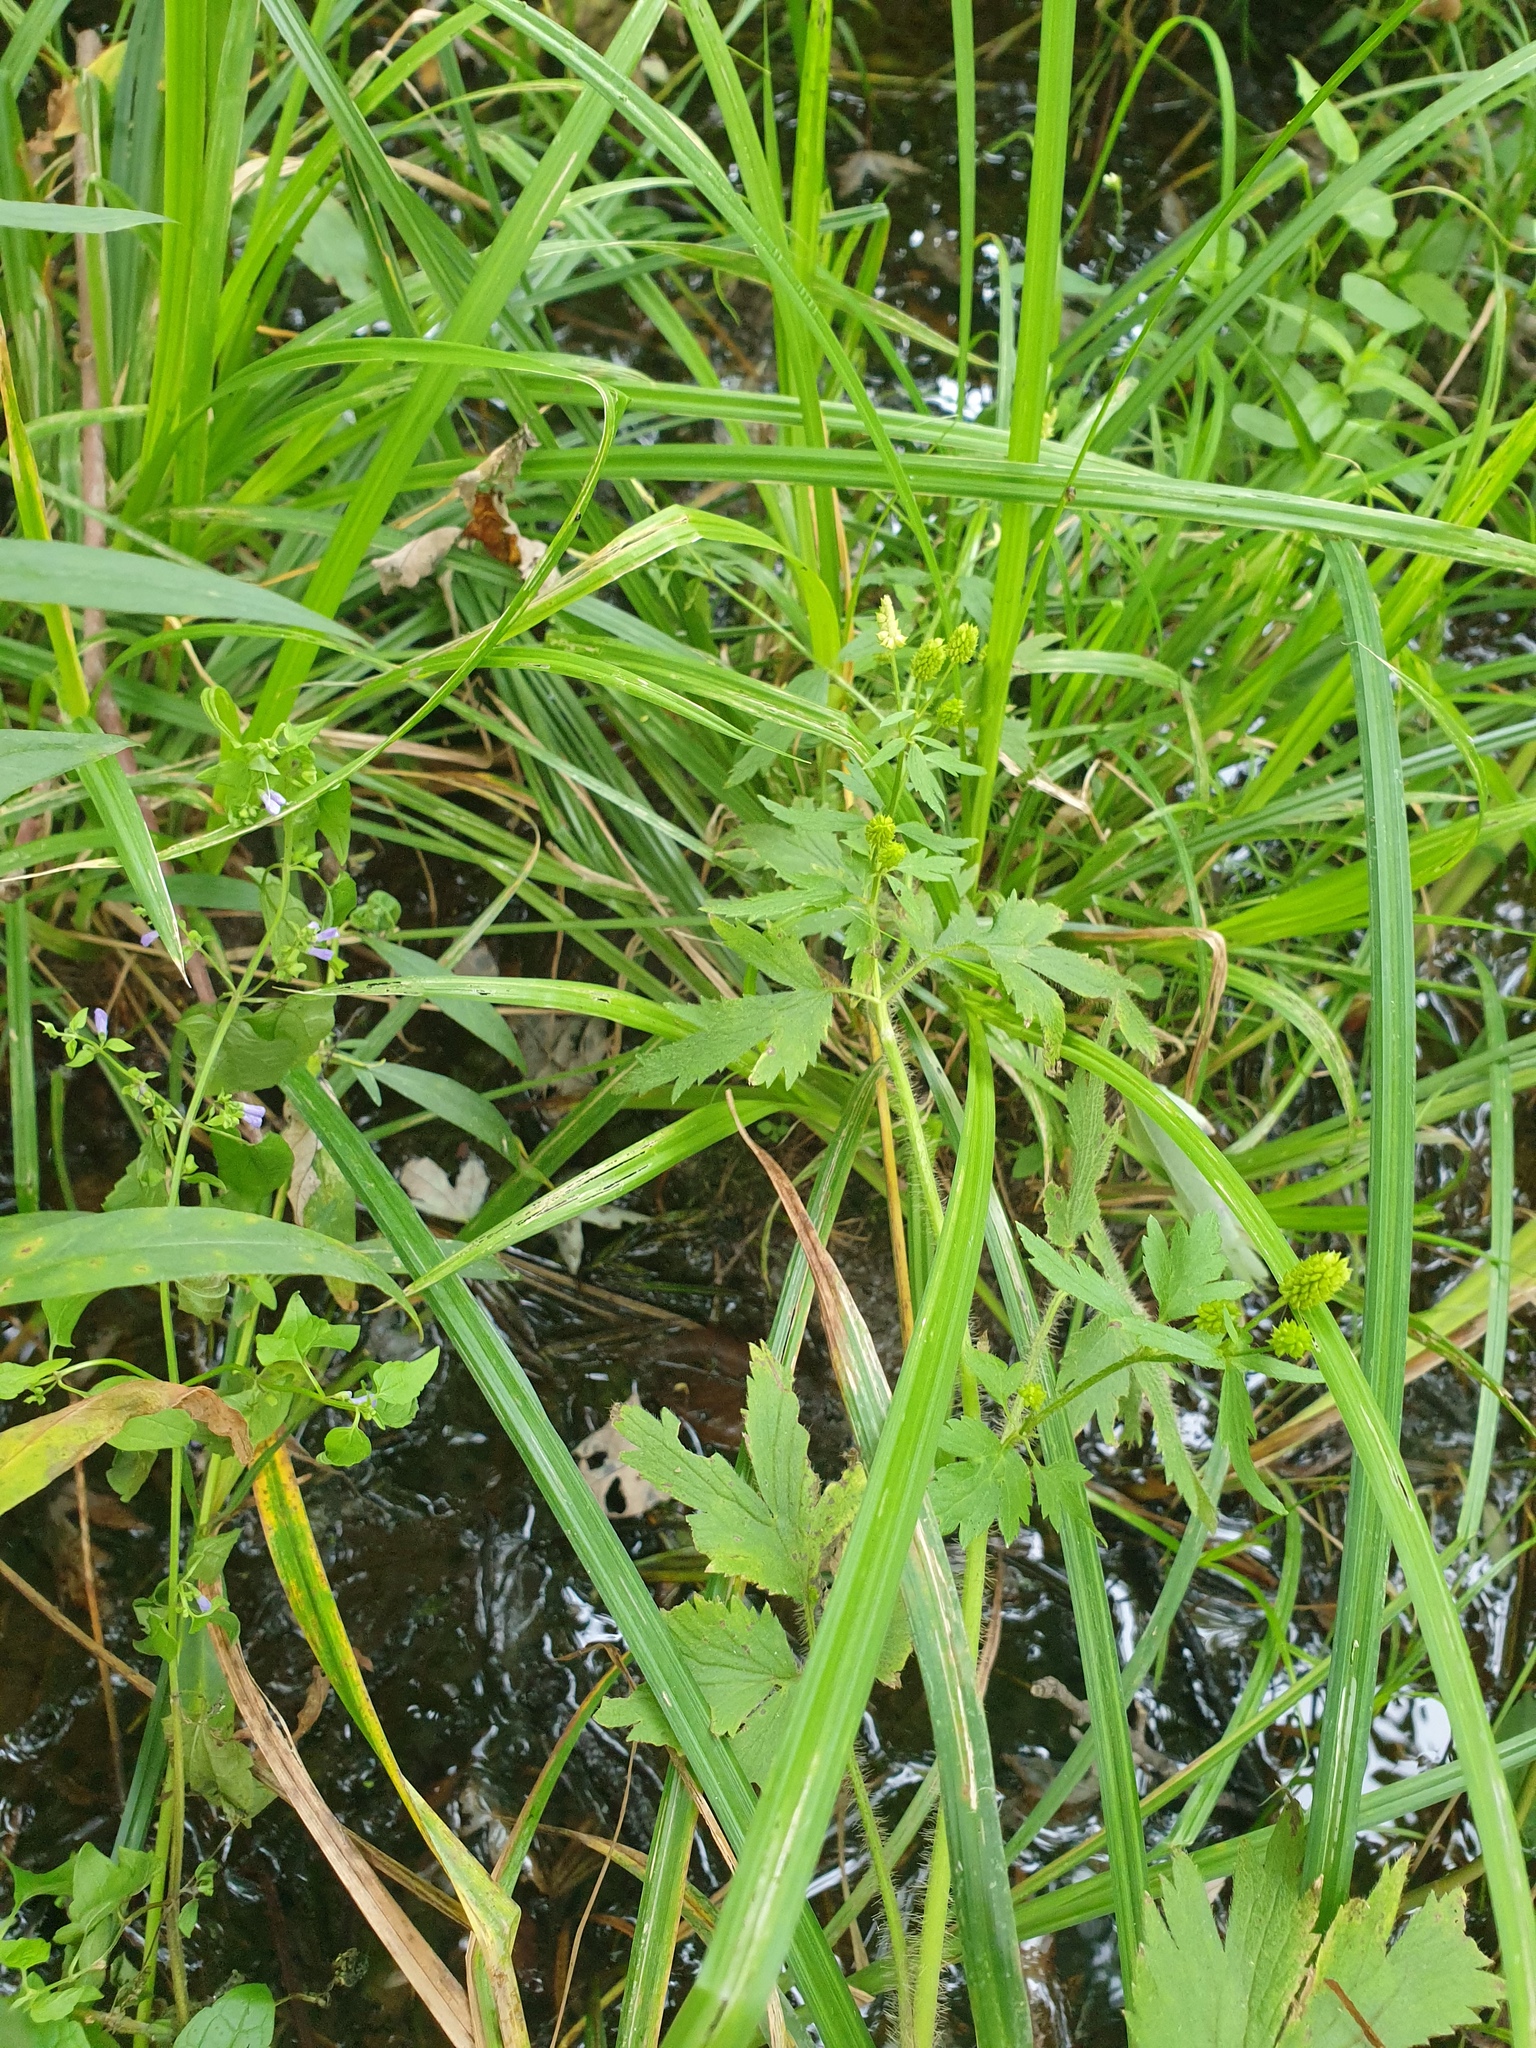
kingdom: Plantae
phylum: Tracheophyta
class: Magnoliopsida
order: Lamiales
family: Lamiaceae
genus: Scutellaria
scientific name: Scutellaria lateriflora
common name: Blue skullcap
